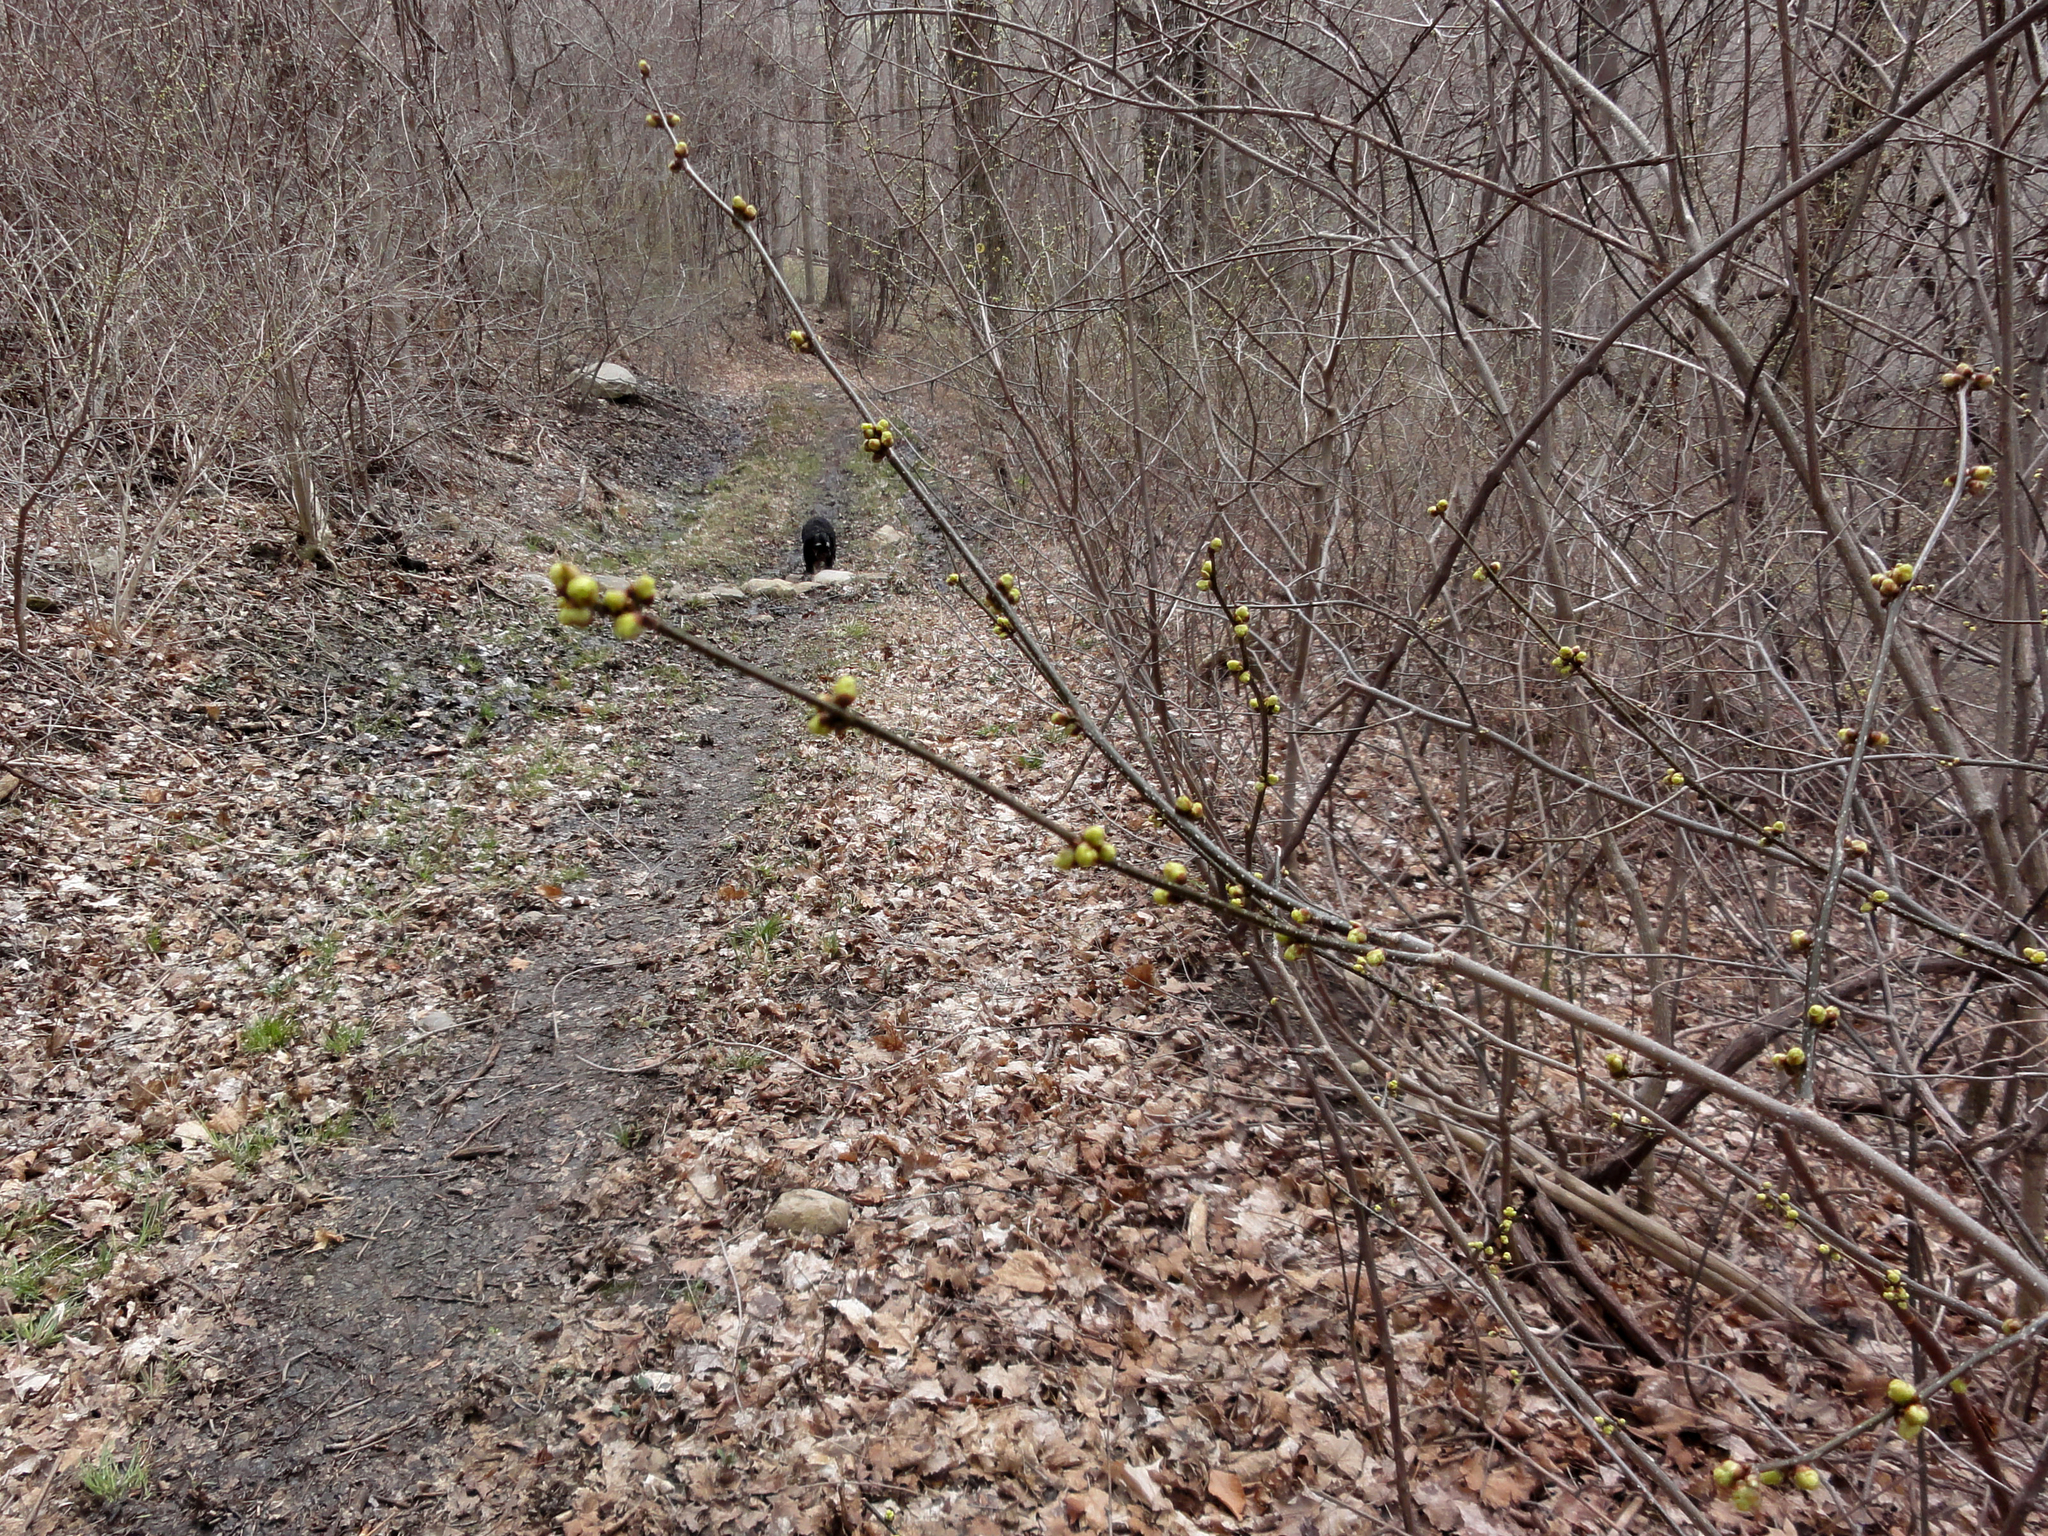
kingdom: Plantae
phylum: Tracheophyta
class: Magnoliopsida
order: Laurales
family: Lauraceae
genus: Lindera
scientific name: Lindera benzoin
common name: Spicebush
